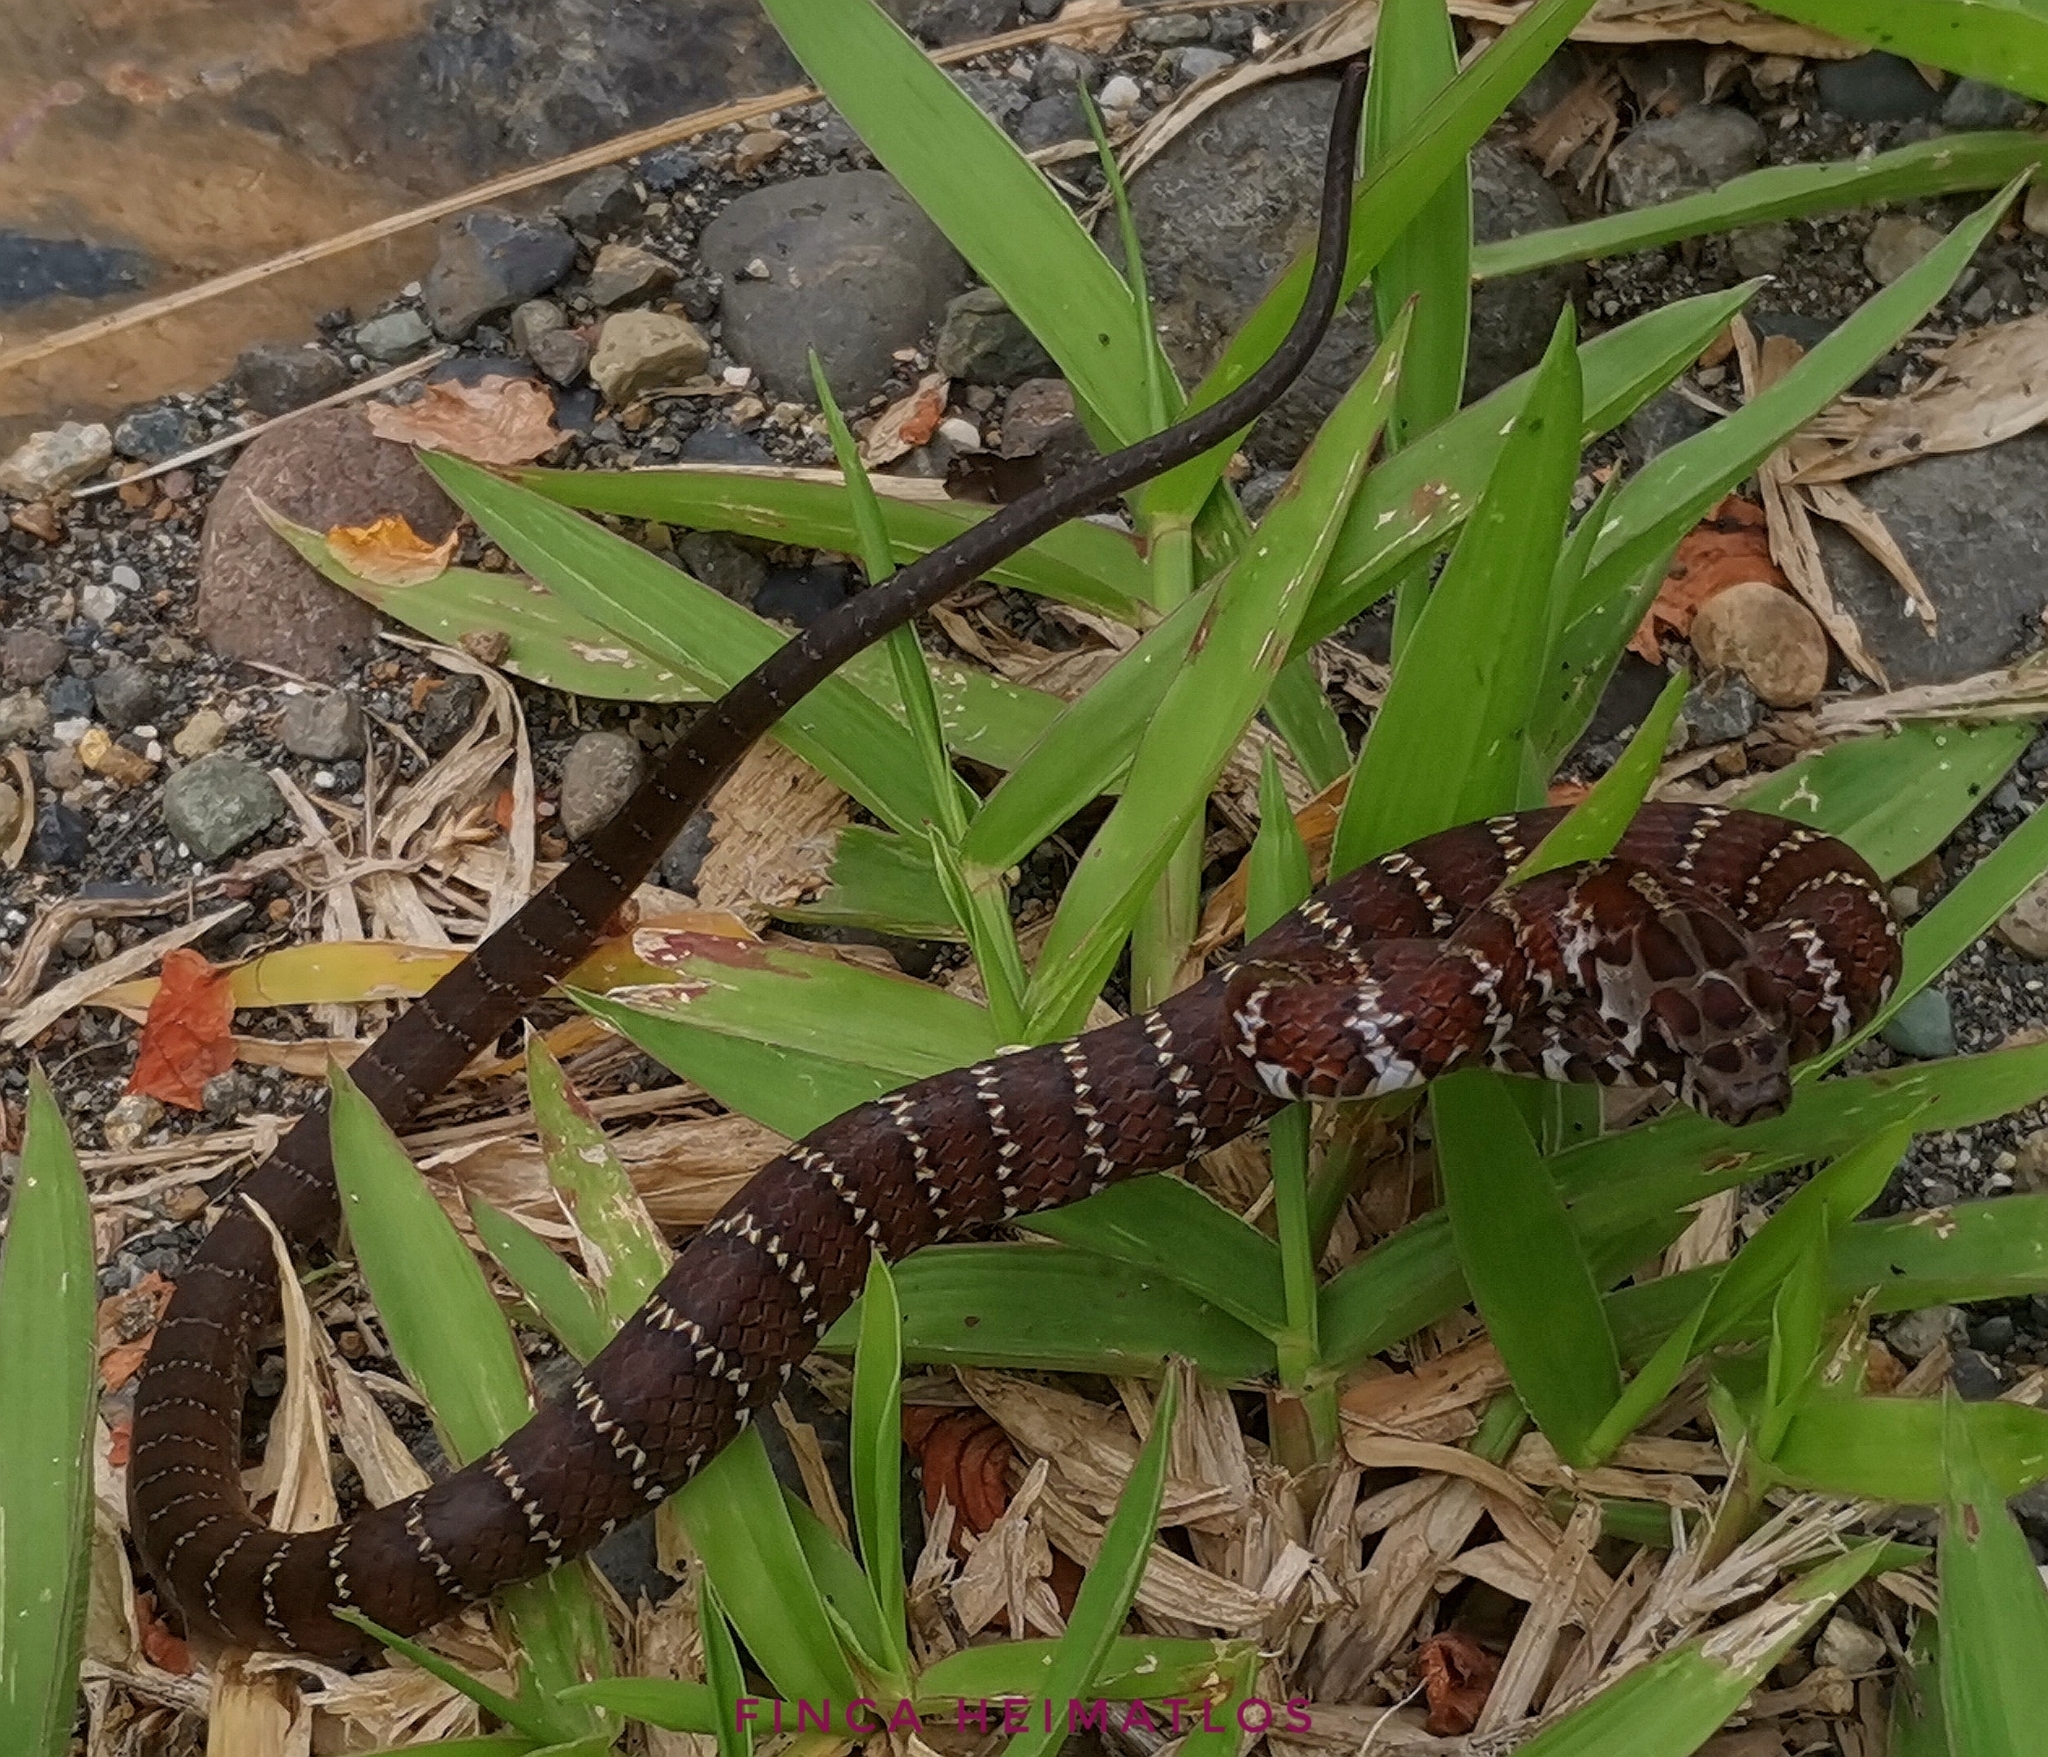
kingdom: Animalia
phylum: Chordata
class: Squamata
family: Colubridae
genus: Drymoluber
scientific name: Drymoluber dichrous
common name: Northern woodland racer
